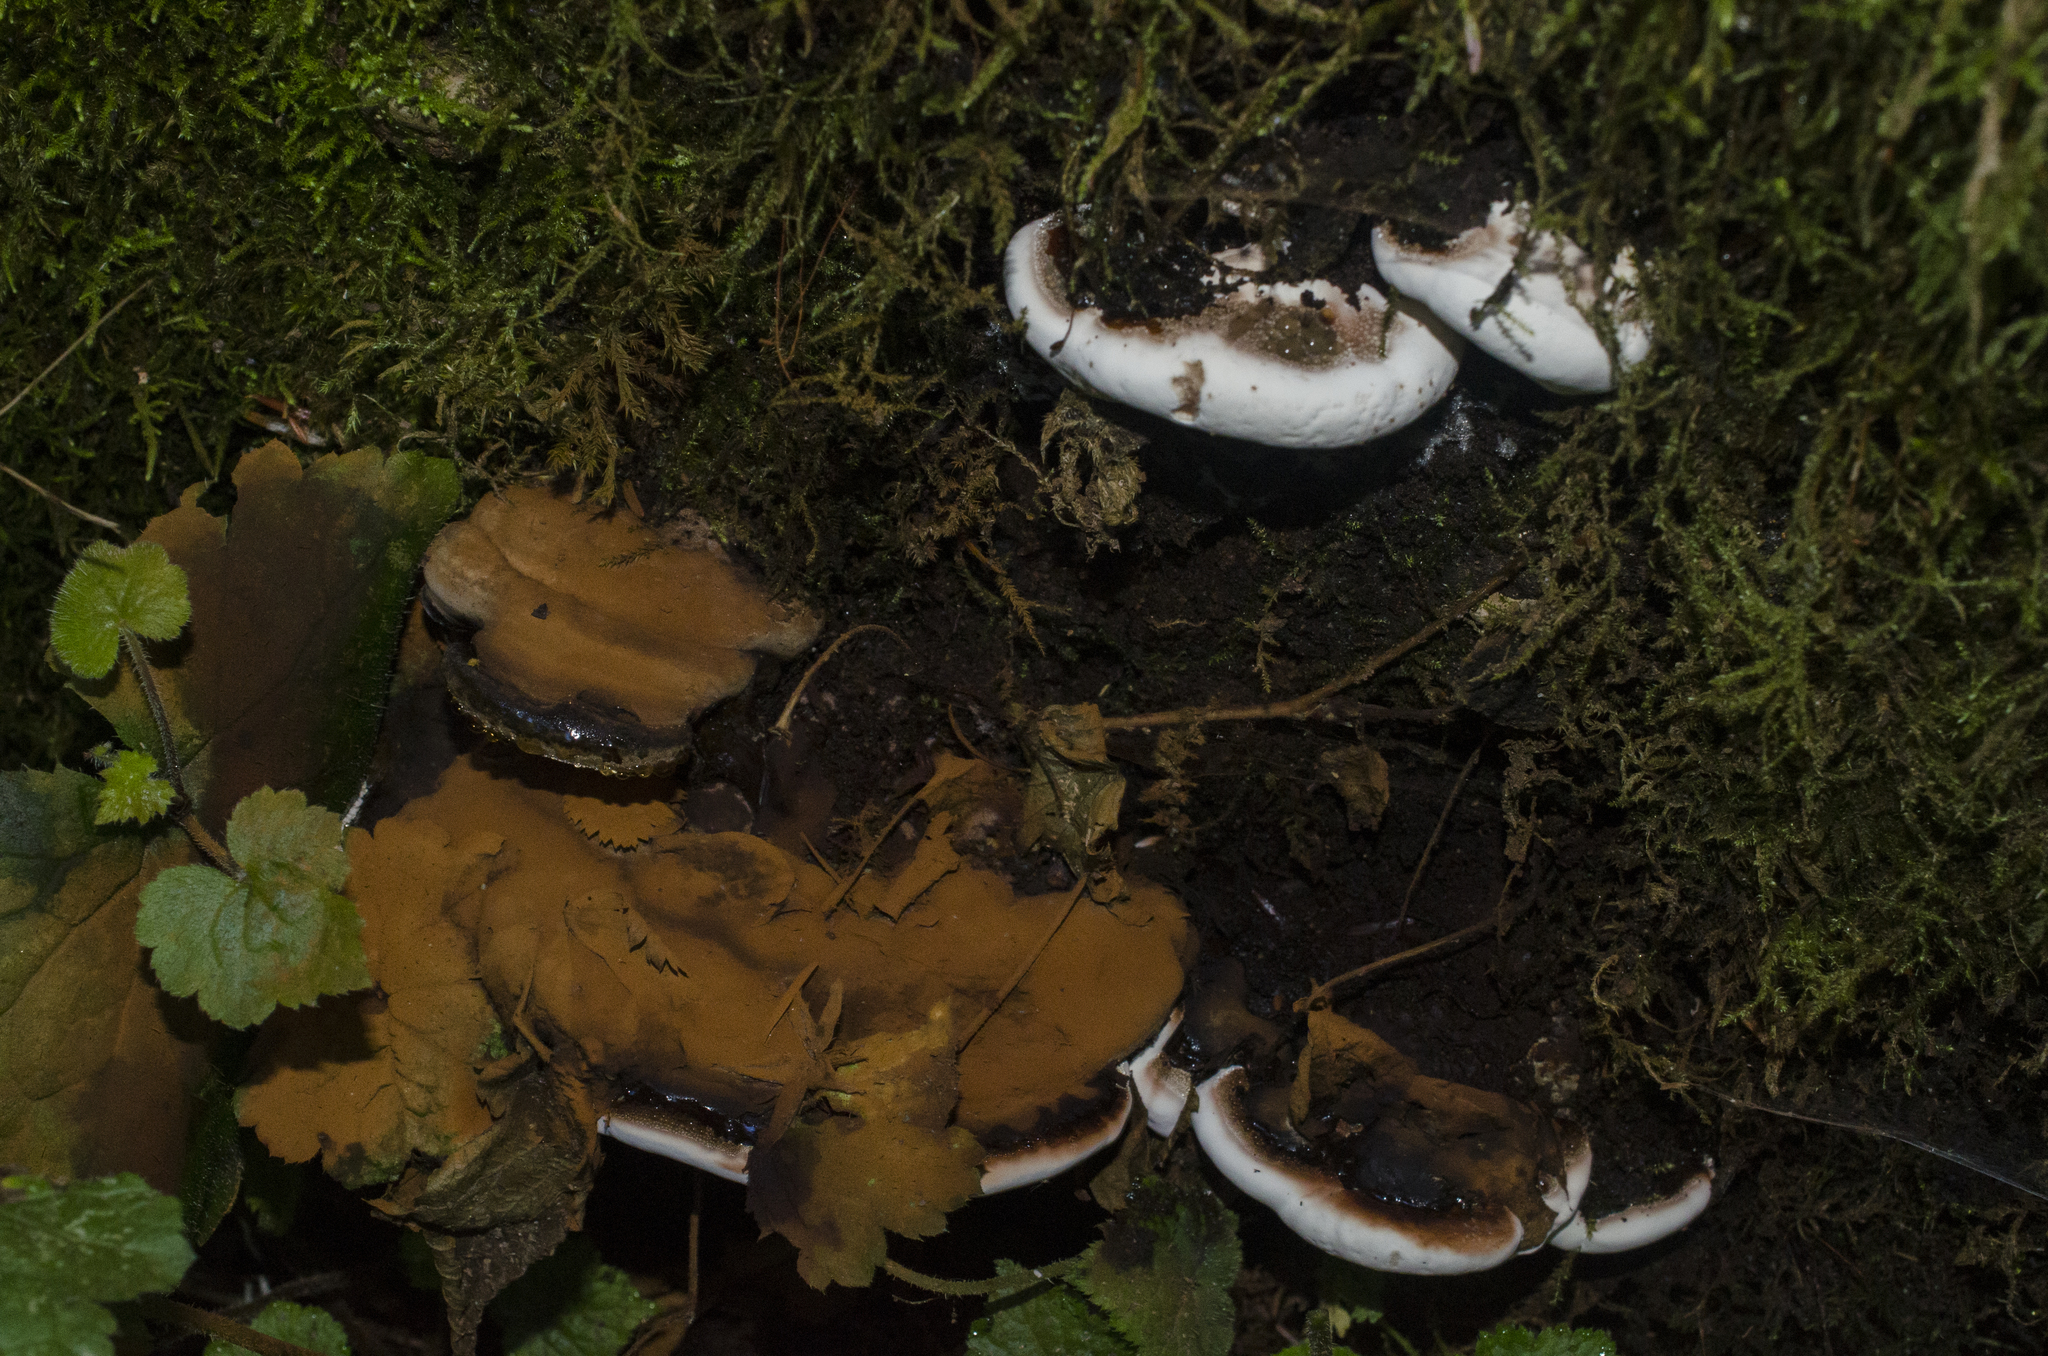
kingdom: Fungi
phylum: Basidiomycota
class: Agaricomycetes
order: Polyporales
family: Polyporaceae
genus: Ganoderma
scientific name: Ganoderma brownii
